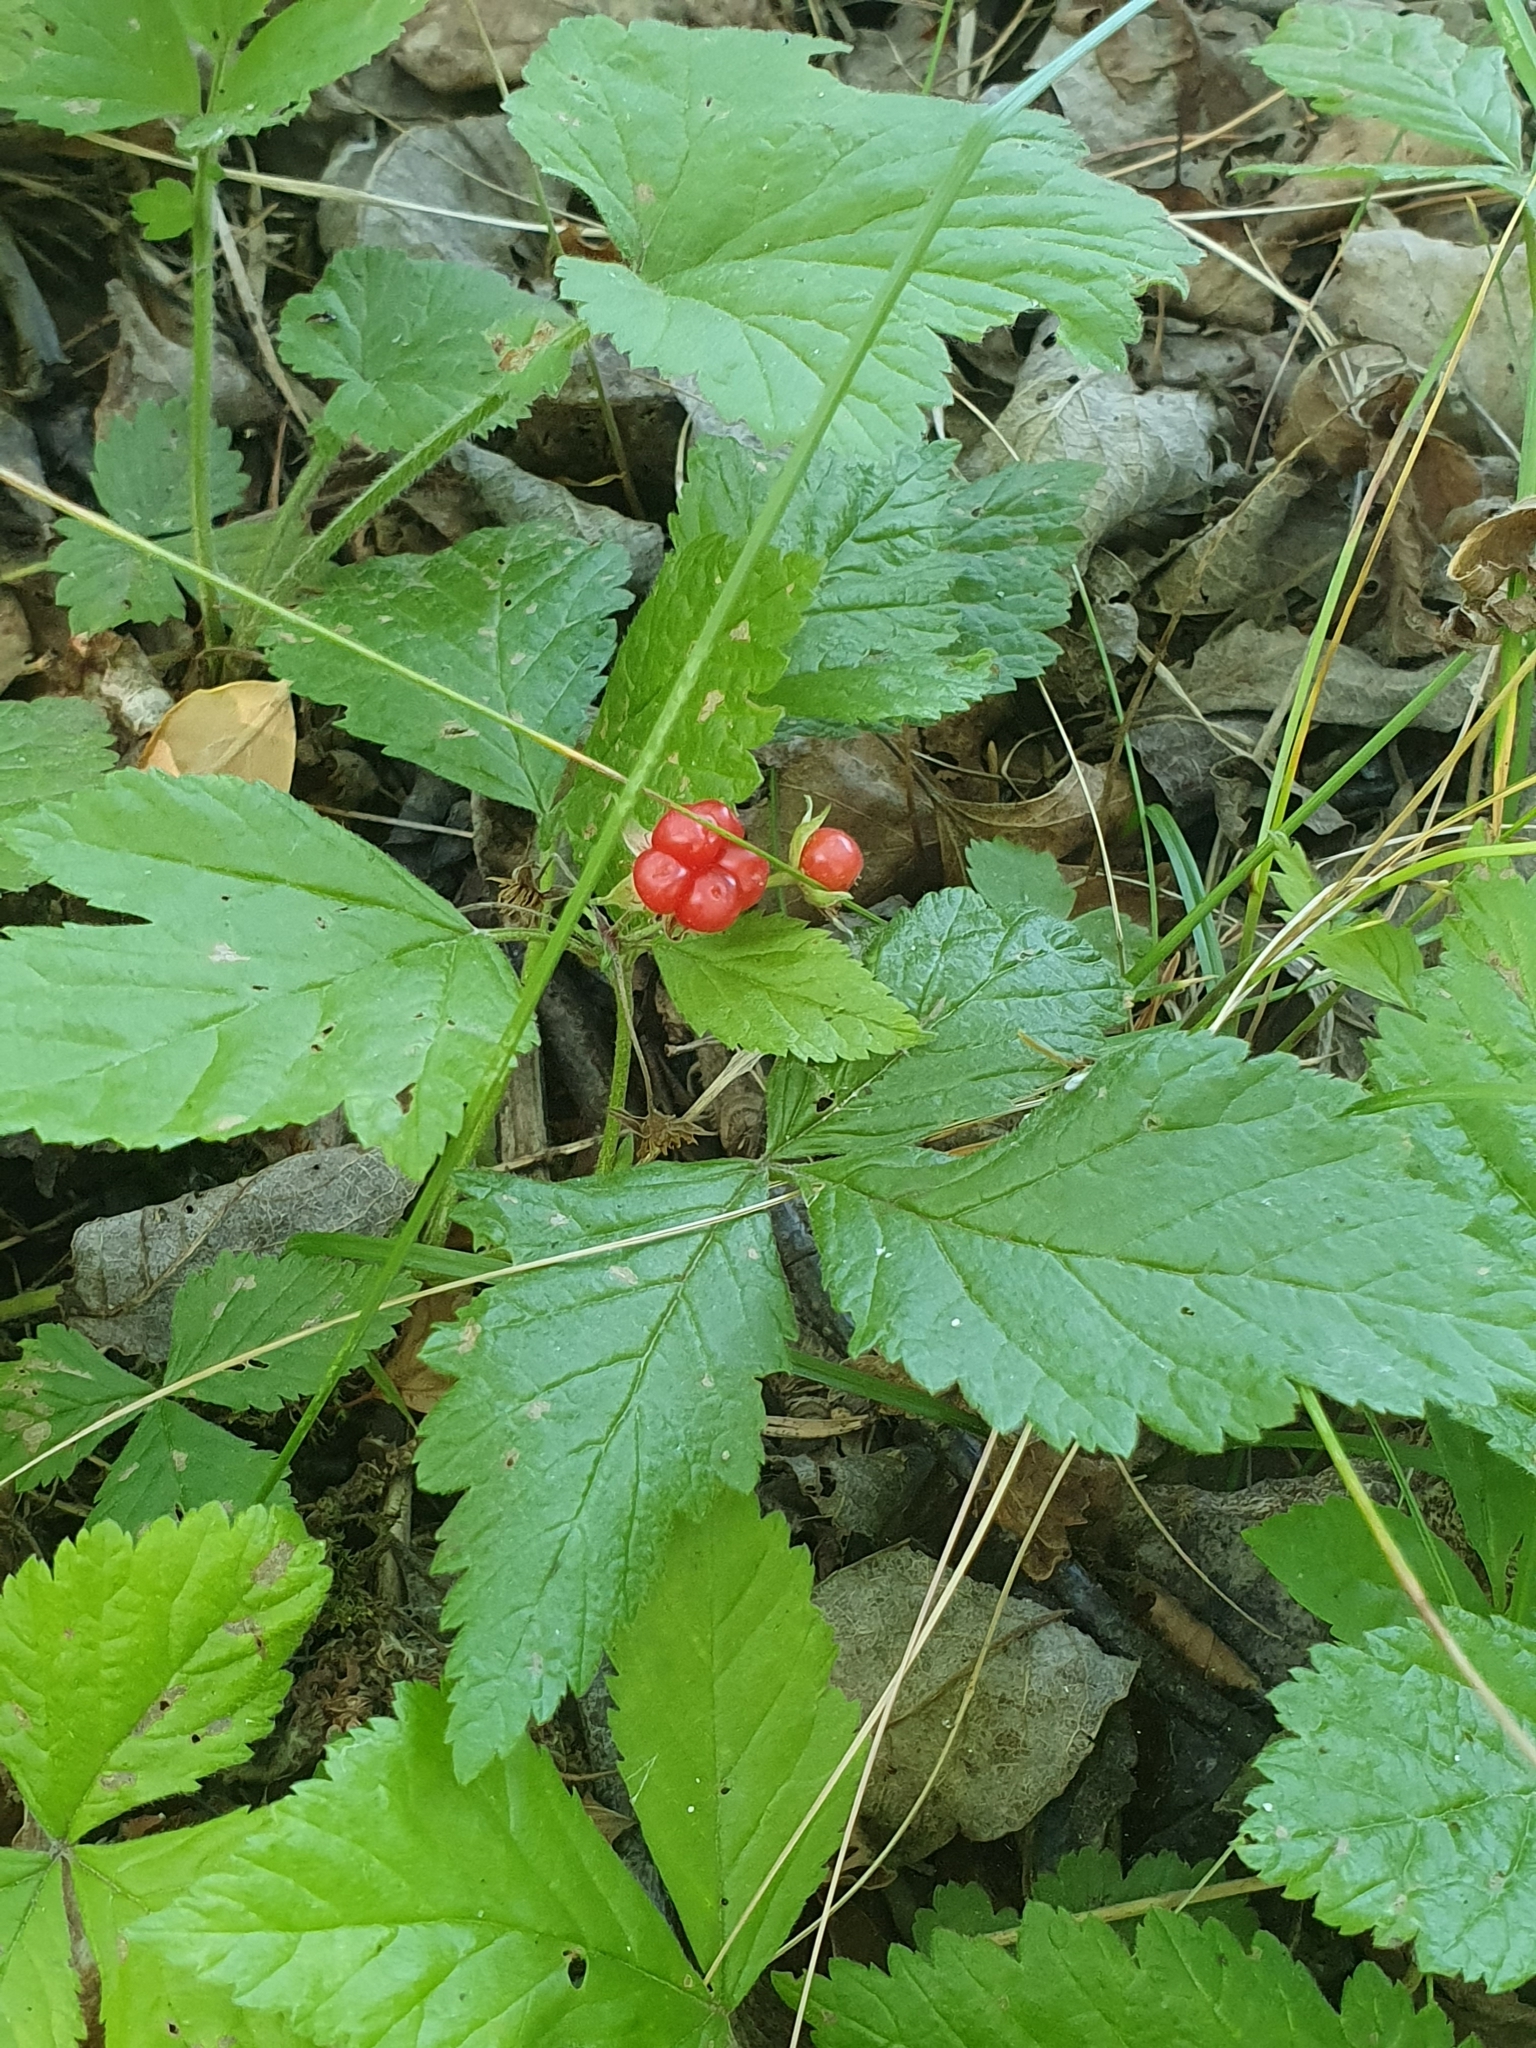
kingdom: Plantae
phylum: Tracheophyta
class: Magnoliopsida
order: Rosales
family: Rosaceae
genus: Rubus
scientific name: Rubus saxatilis
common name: Stone bramble
